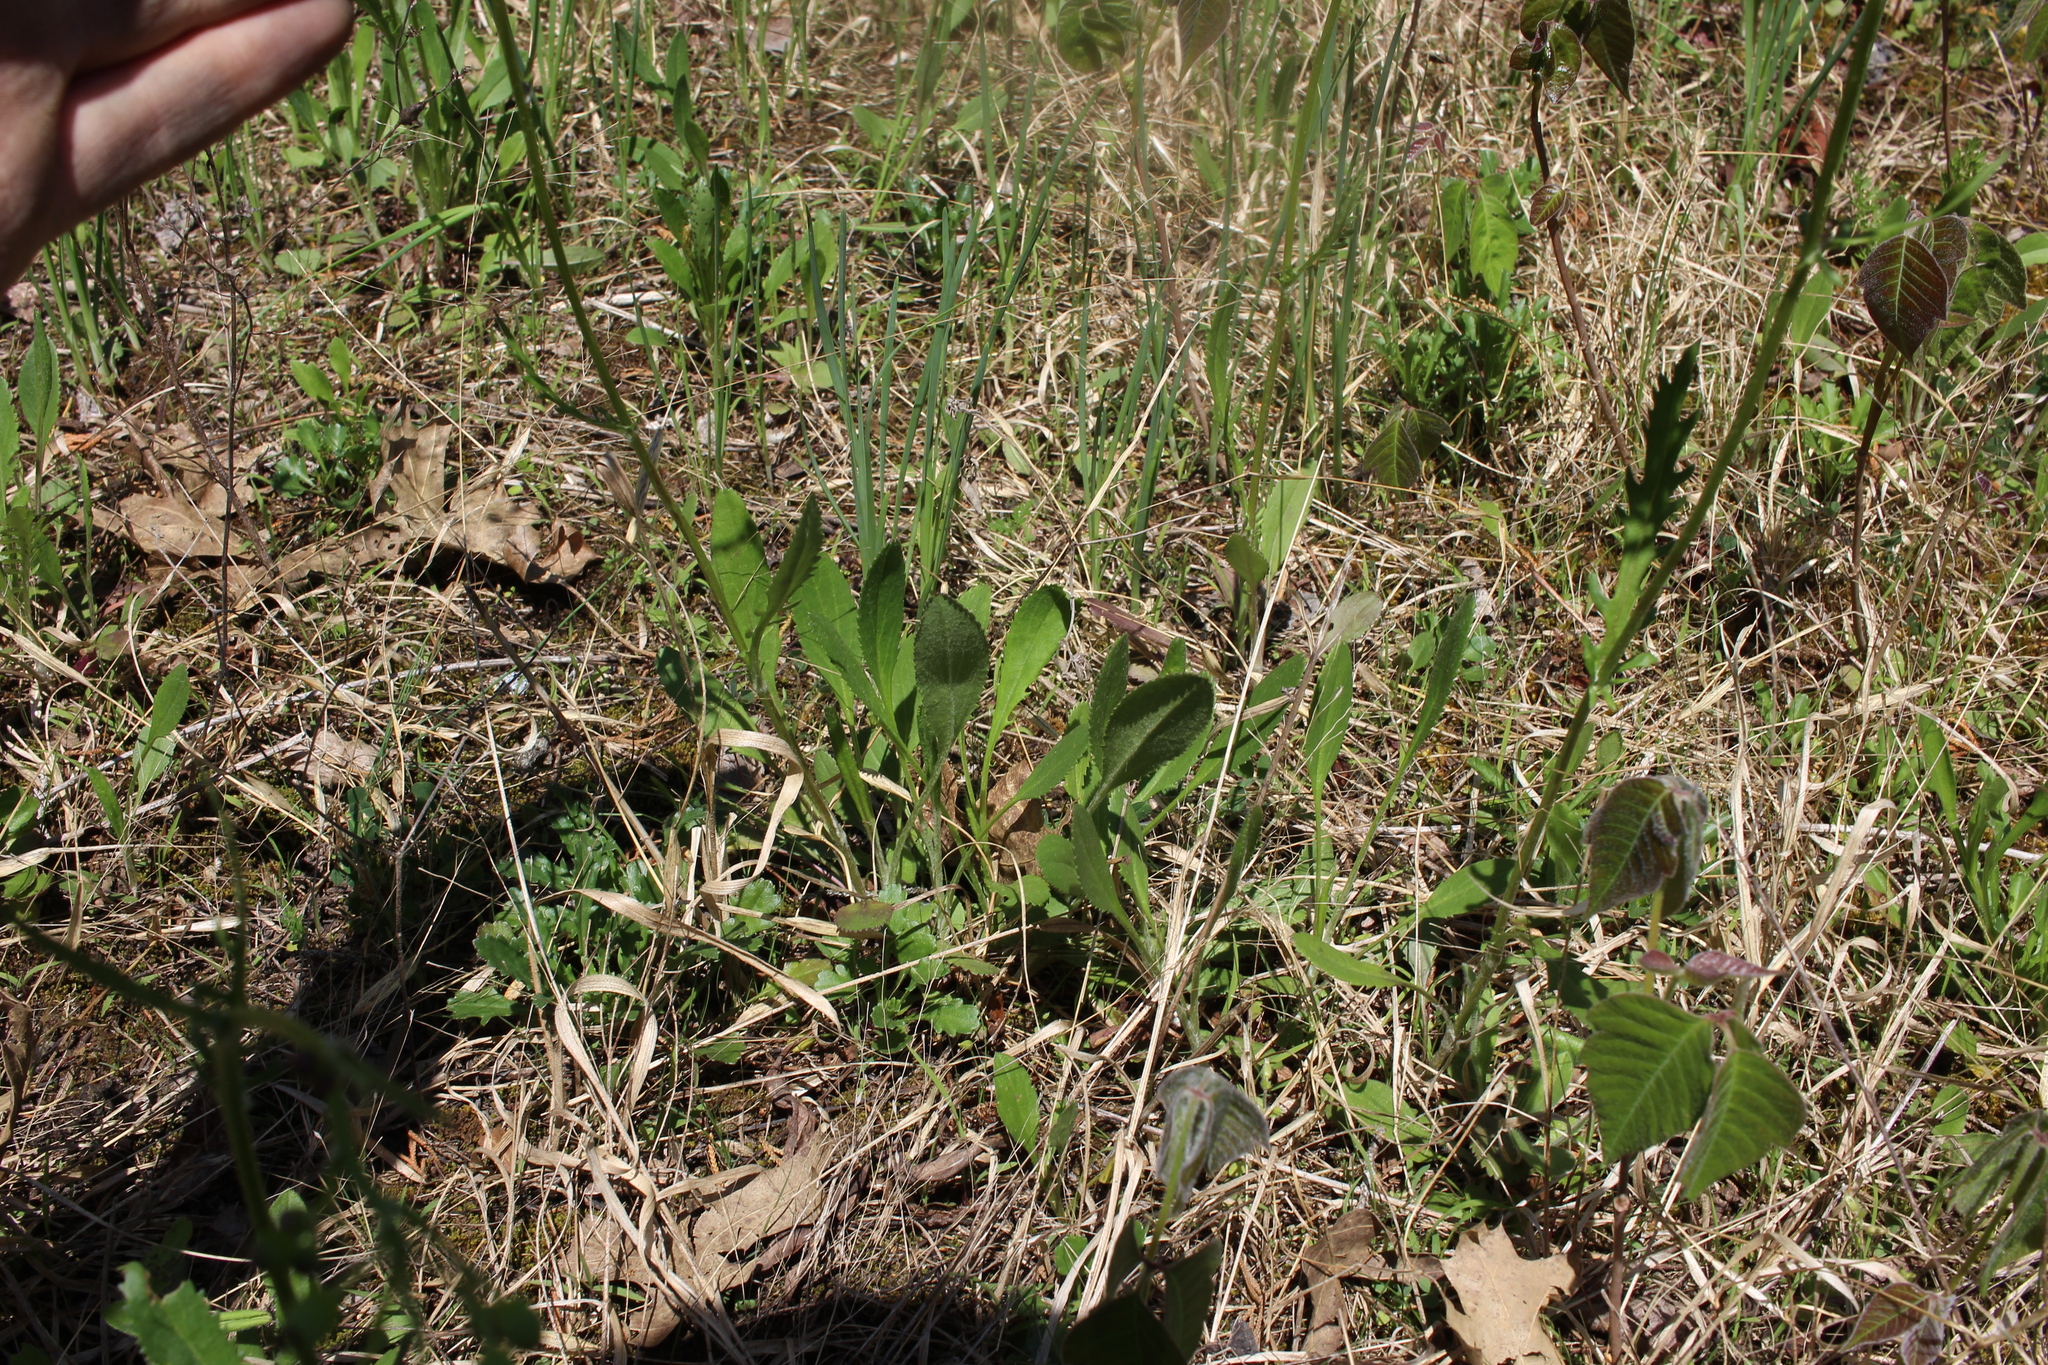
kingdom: Plantae
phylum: Tracheophyta
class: Magnoliopsida
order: Sapindales
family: Anacardiaceae
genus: Toxicodendron
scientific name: Toxicodendron radicans
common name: Poison ivy
